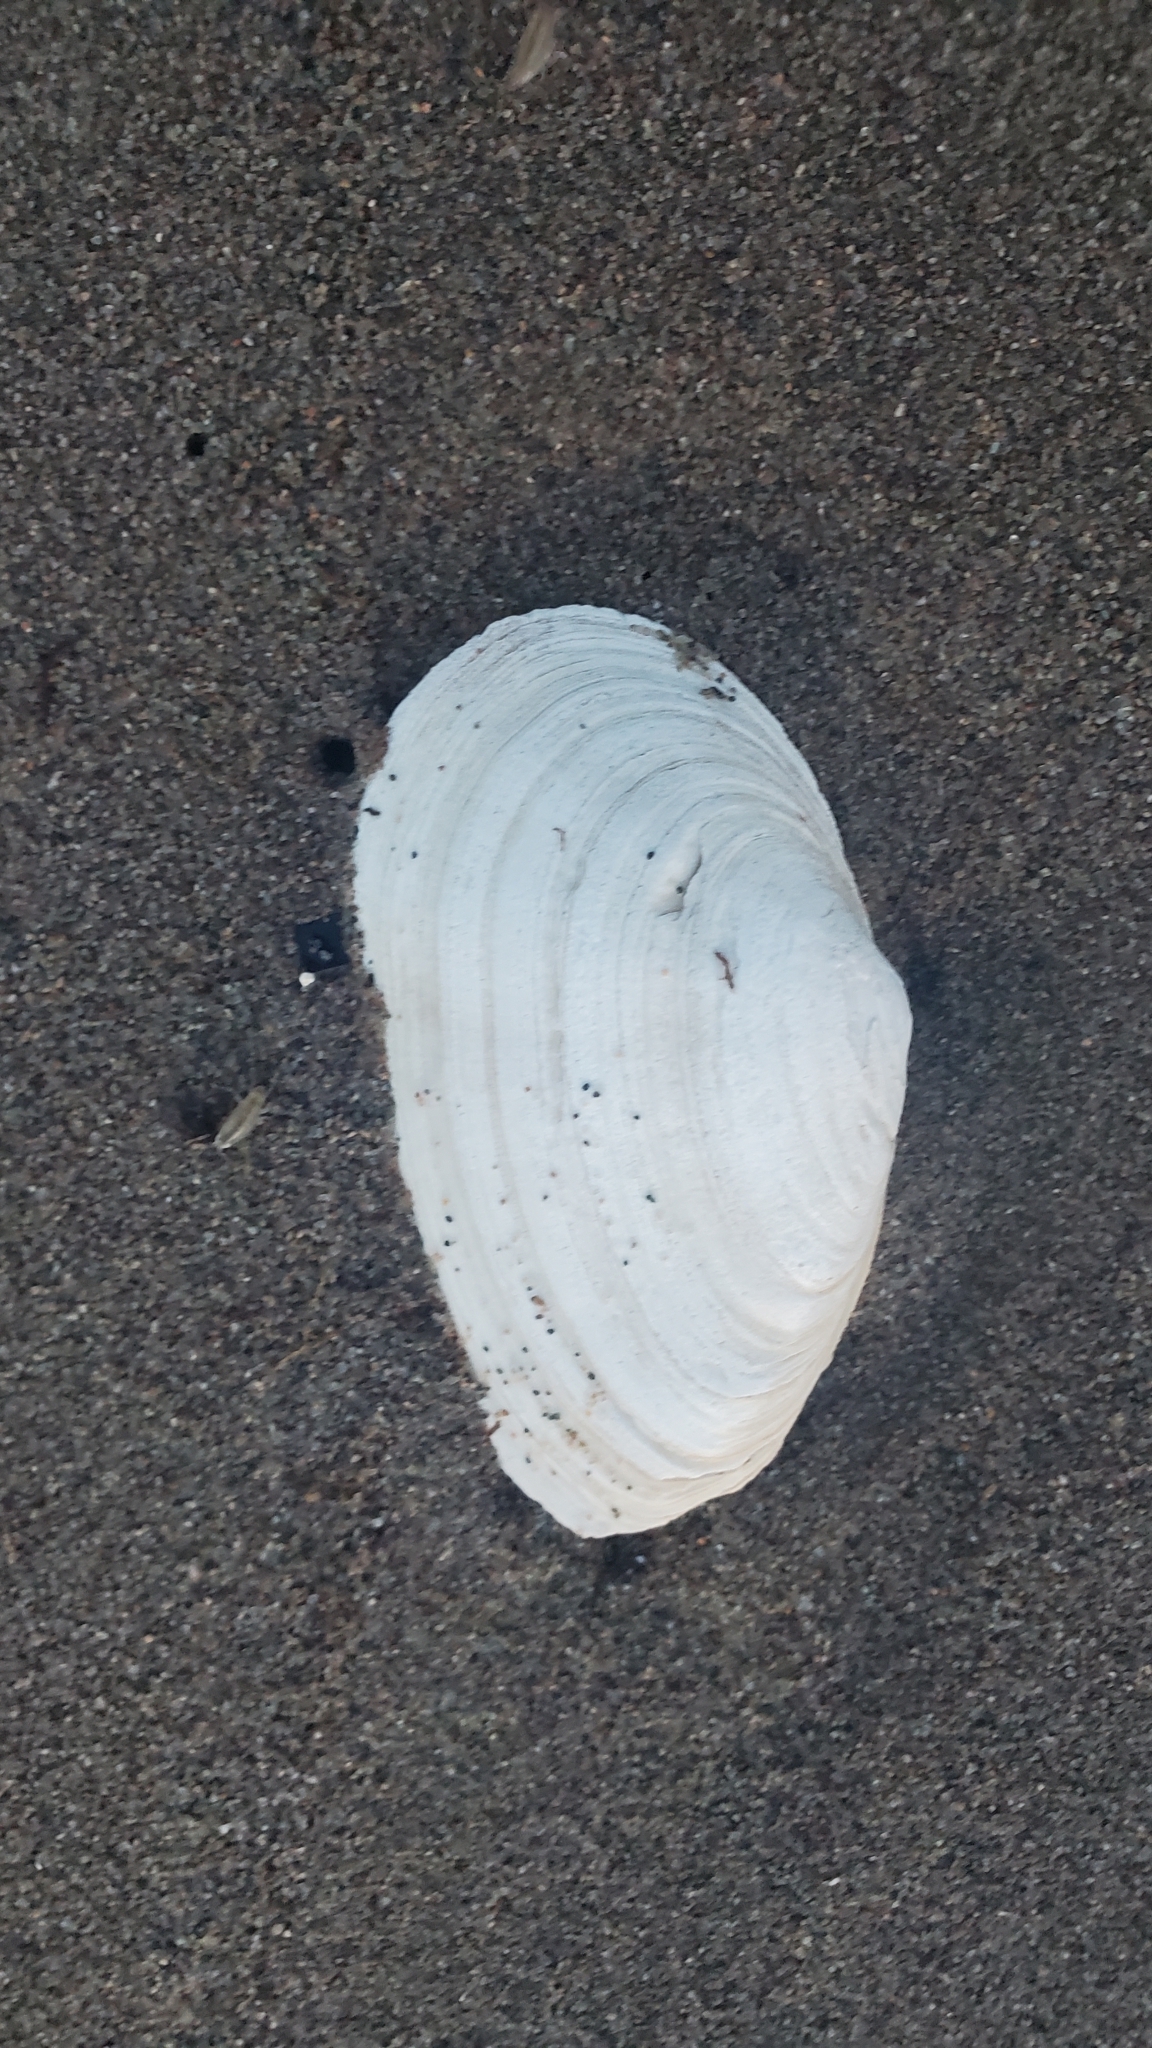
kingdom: Animalia
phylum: Mollusca
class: Bivalvia
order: Myida
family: Myidae
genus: Mya
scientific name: Mya arenaria
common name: Soft-shelled clam
